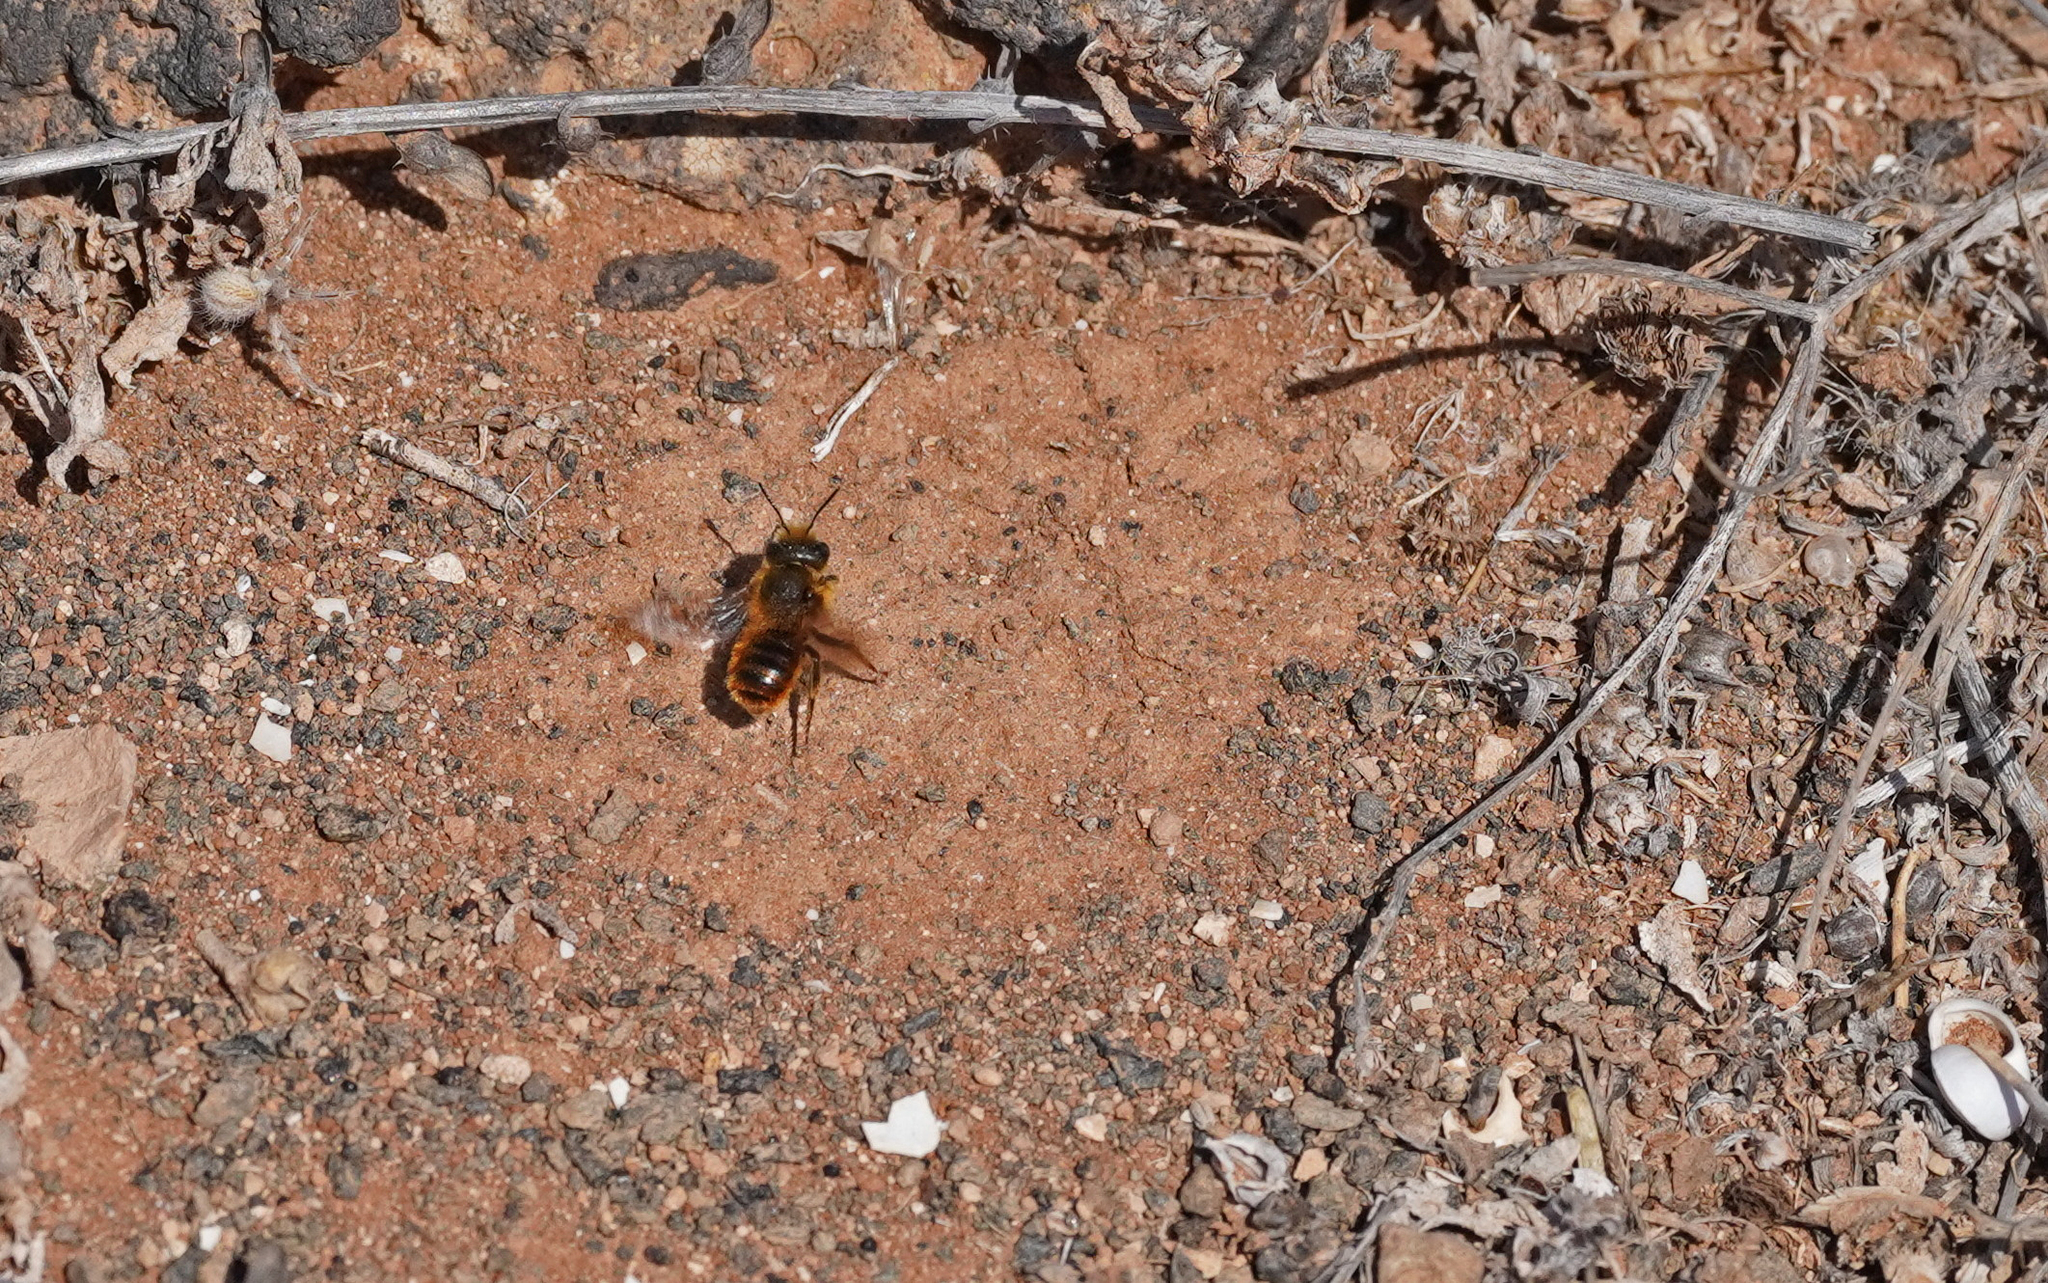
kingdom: Animalia
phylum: Arthropoda
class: Insecta
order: Hymenoptera
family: Megachilidae
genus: Osmia
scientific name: Osmia cinnabarina
